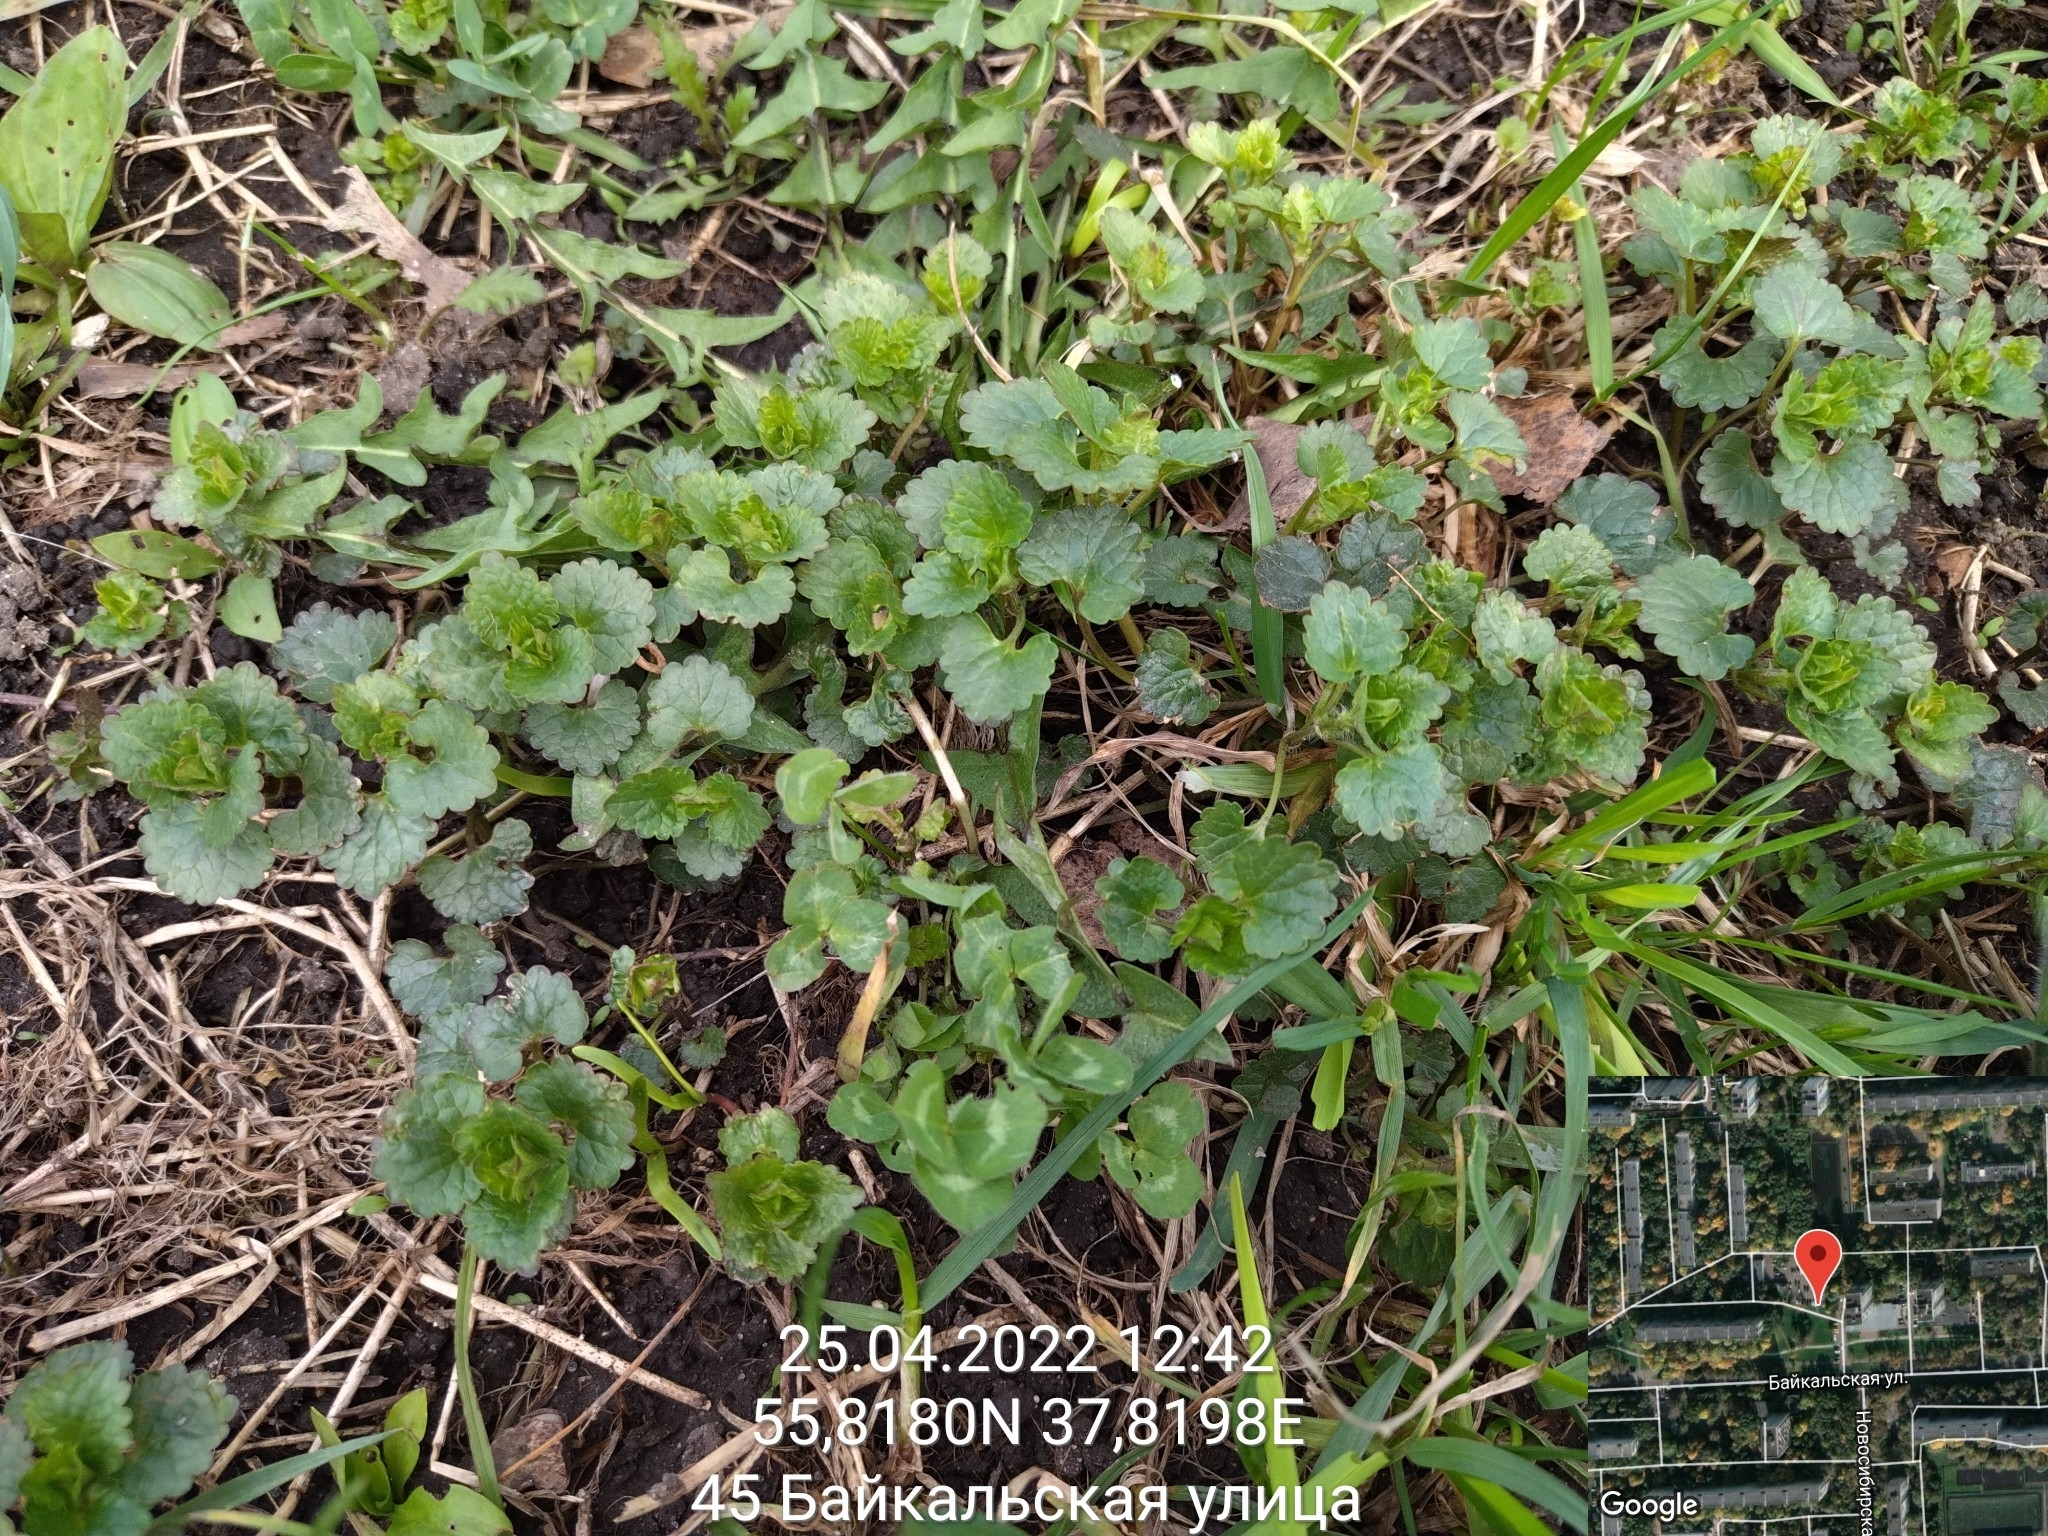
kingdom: Plantae
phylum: Tracheophyta
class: Magnoliopsida
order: Lamiales
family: Lamiaceae
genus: Glechoma
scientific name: Glechoma hederacea
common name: Ground ivy
